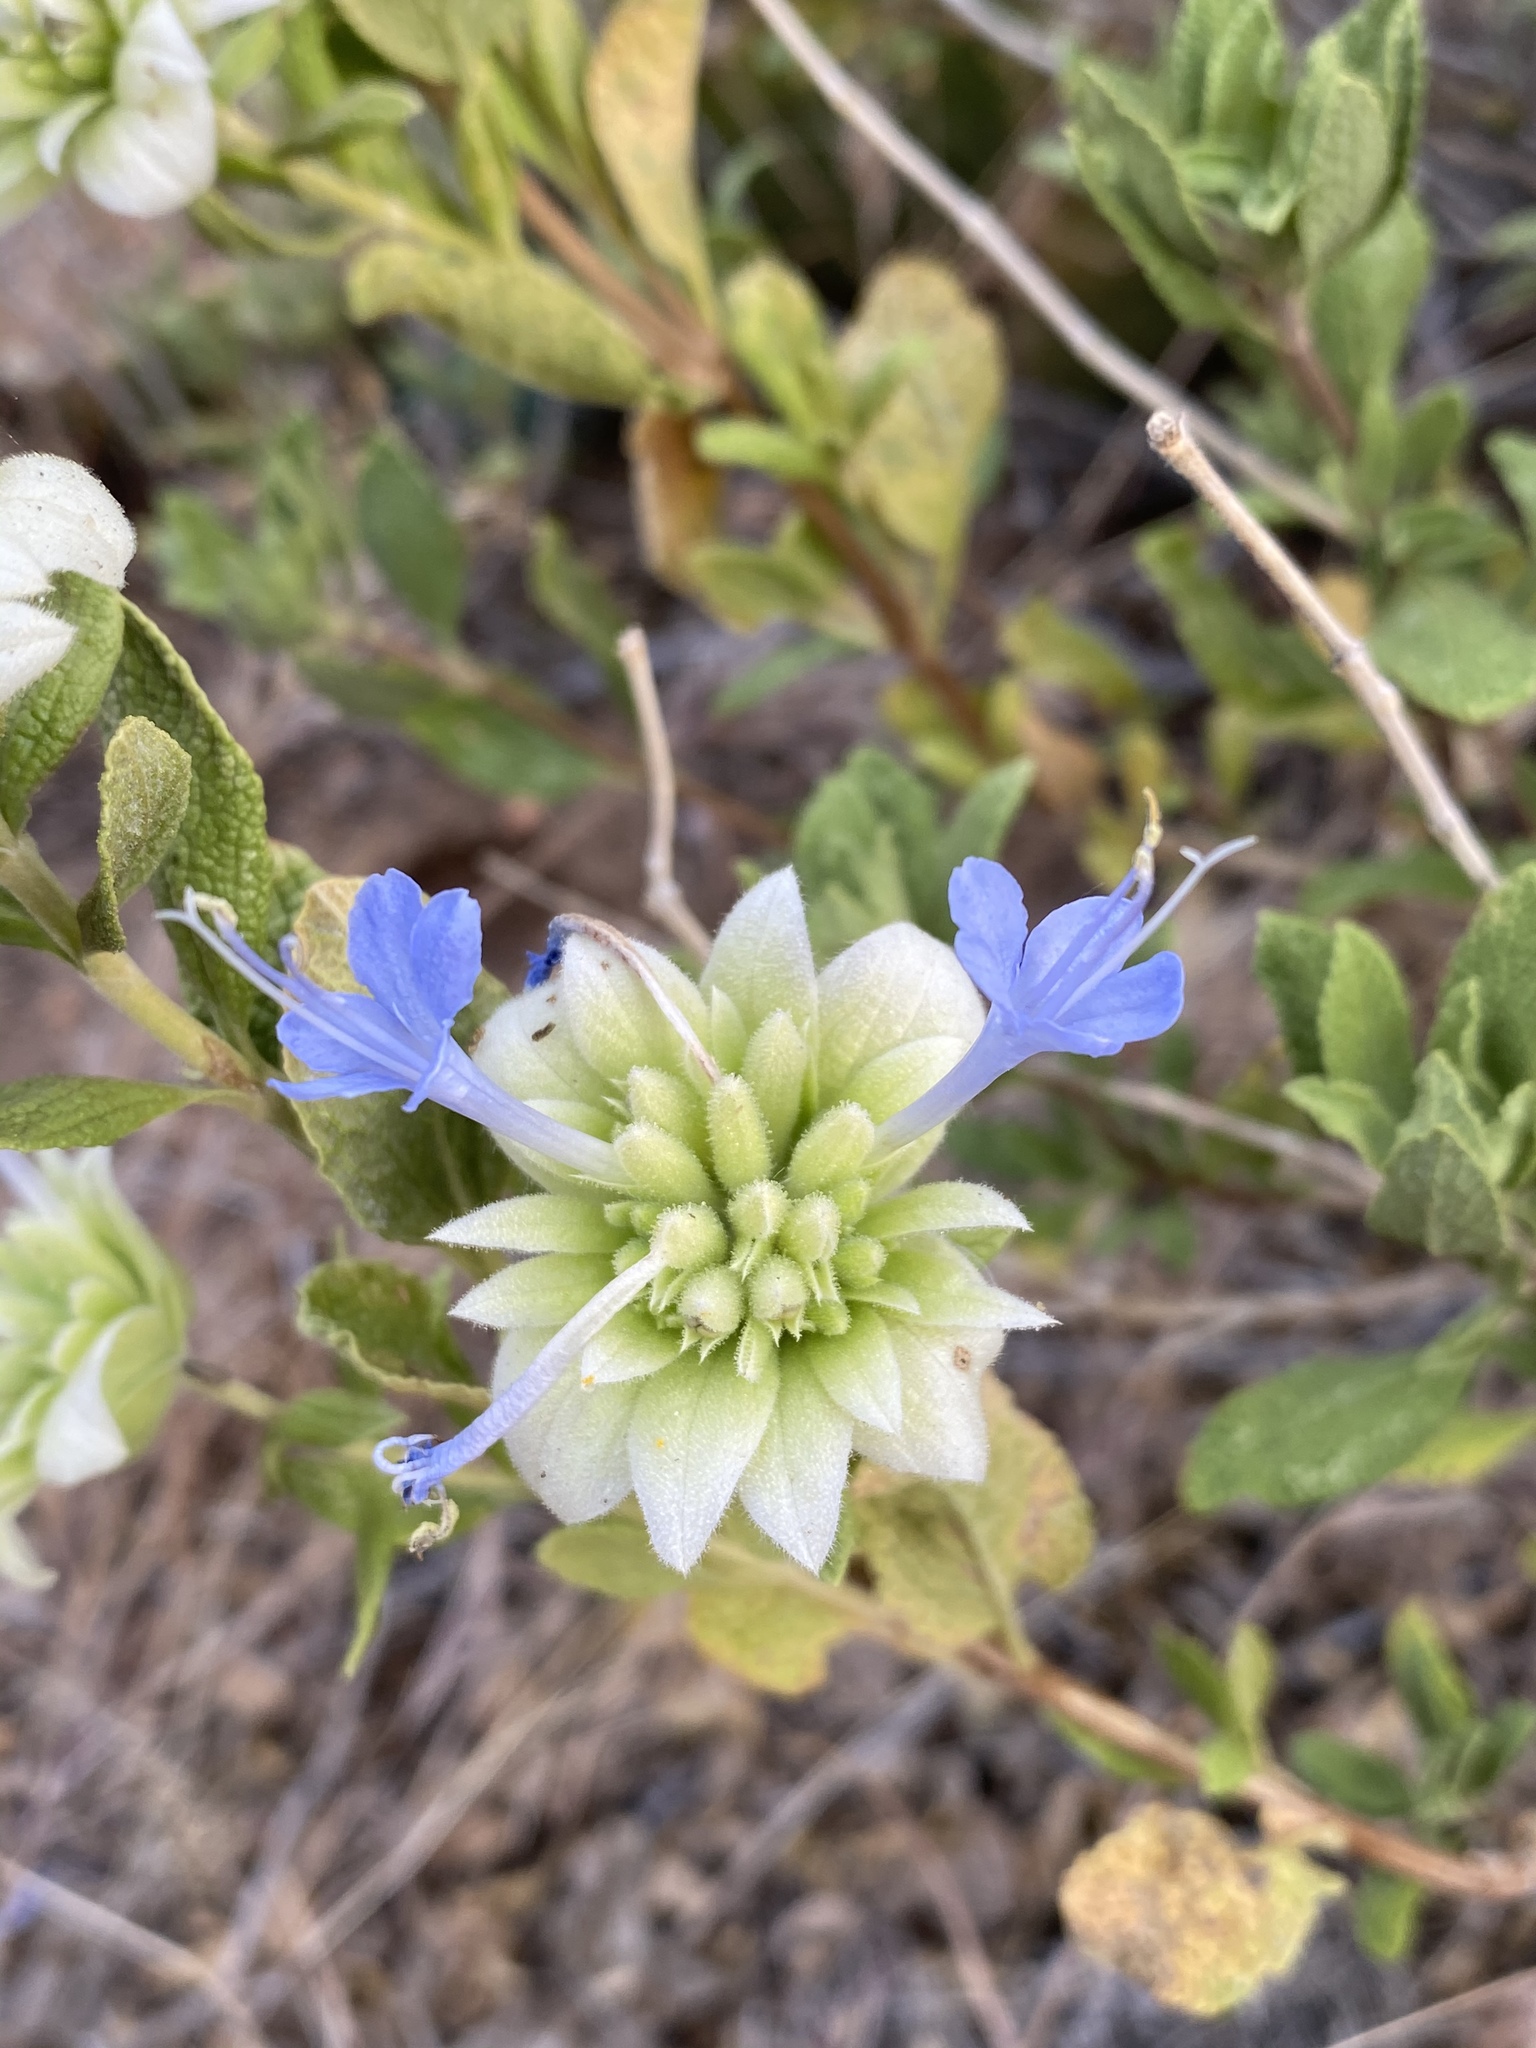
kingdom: Plantae
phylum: Tracheophyta
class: Magnoliopsida
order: Lamiales
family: Lamiaceae
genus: Salvia
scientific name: Salvia mohavensis
